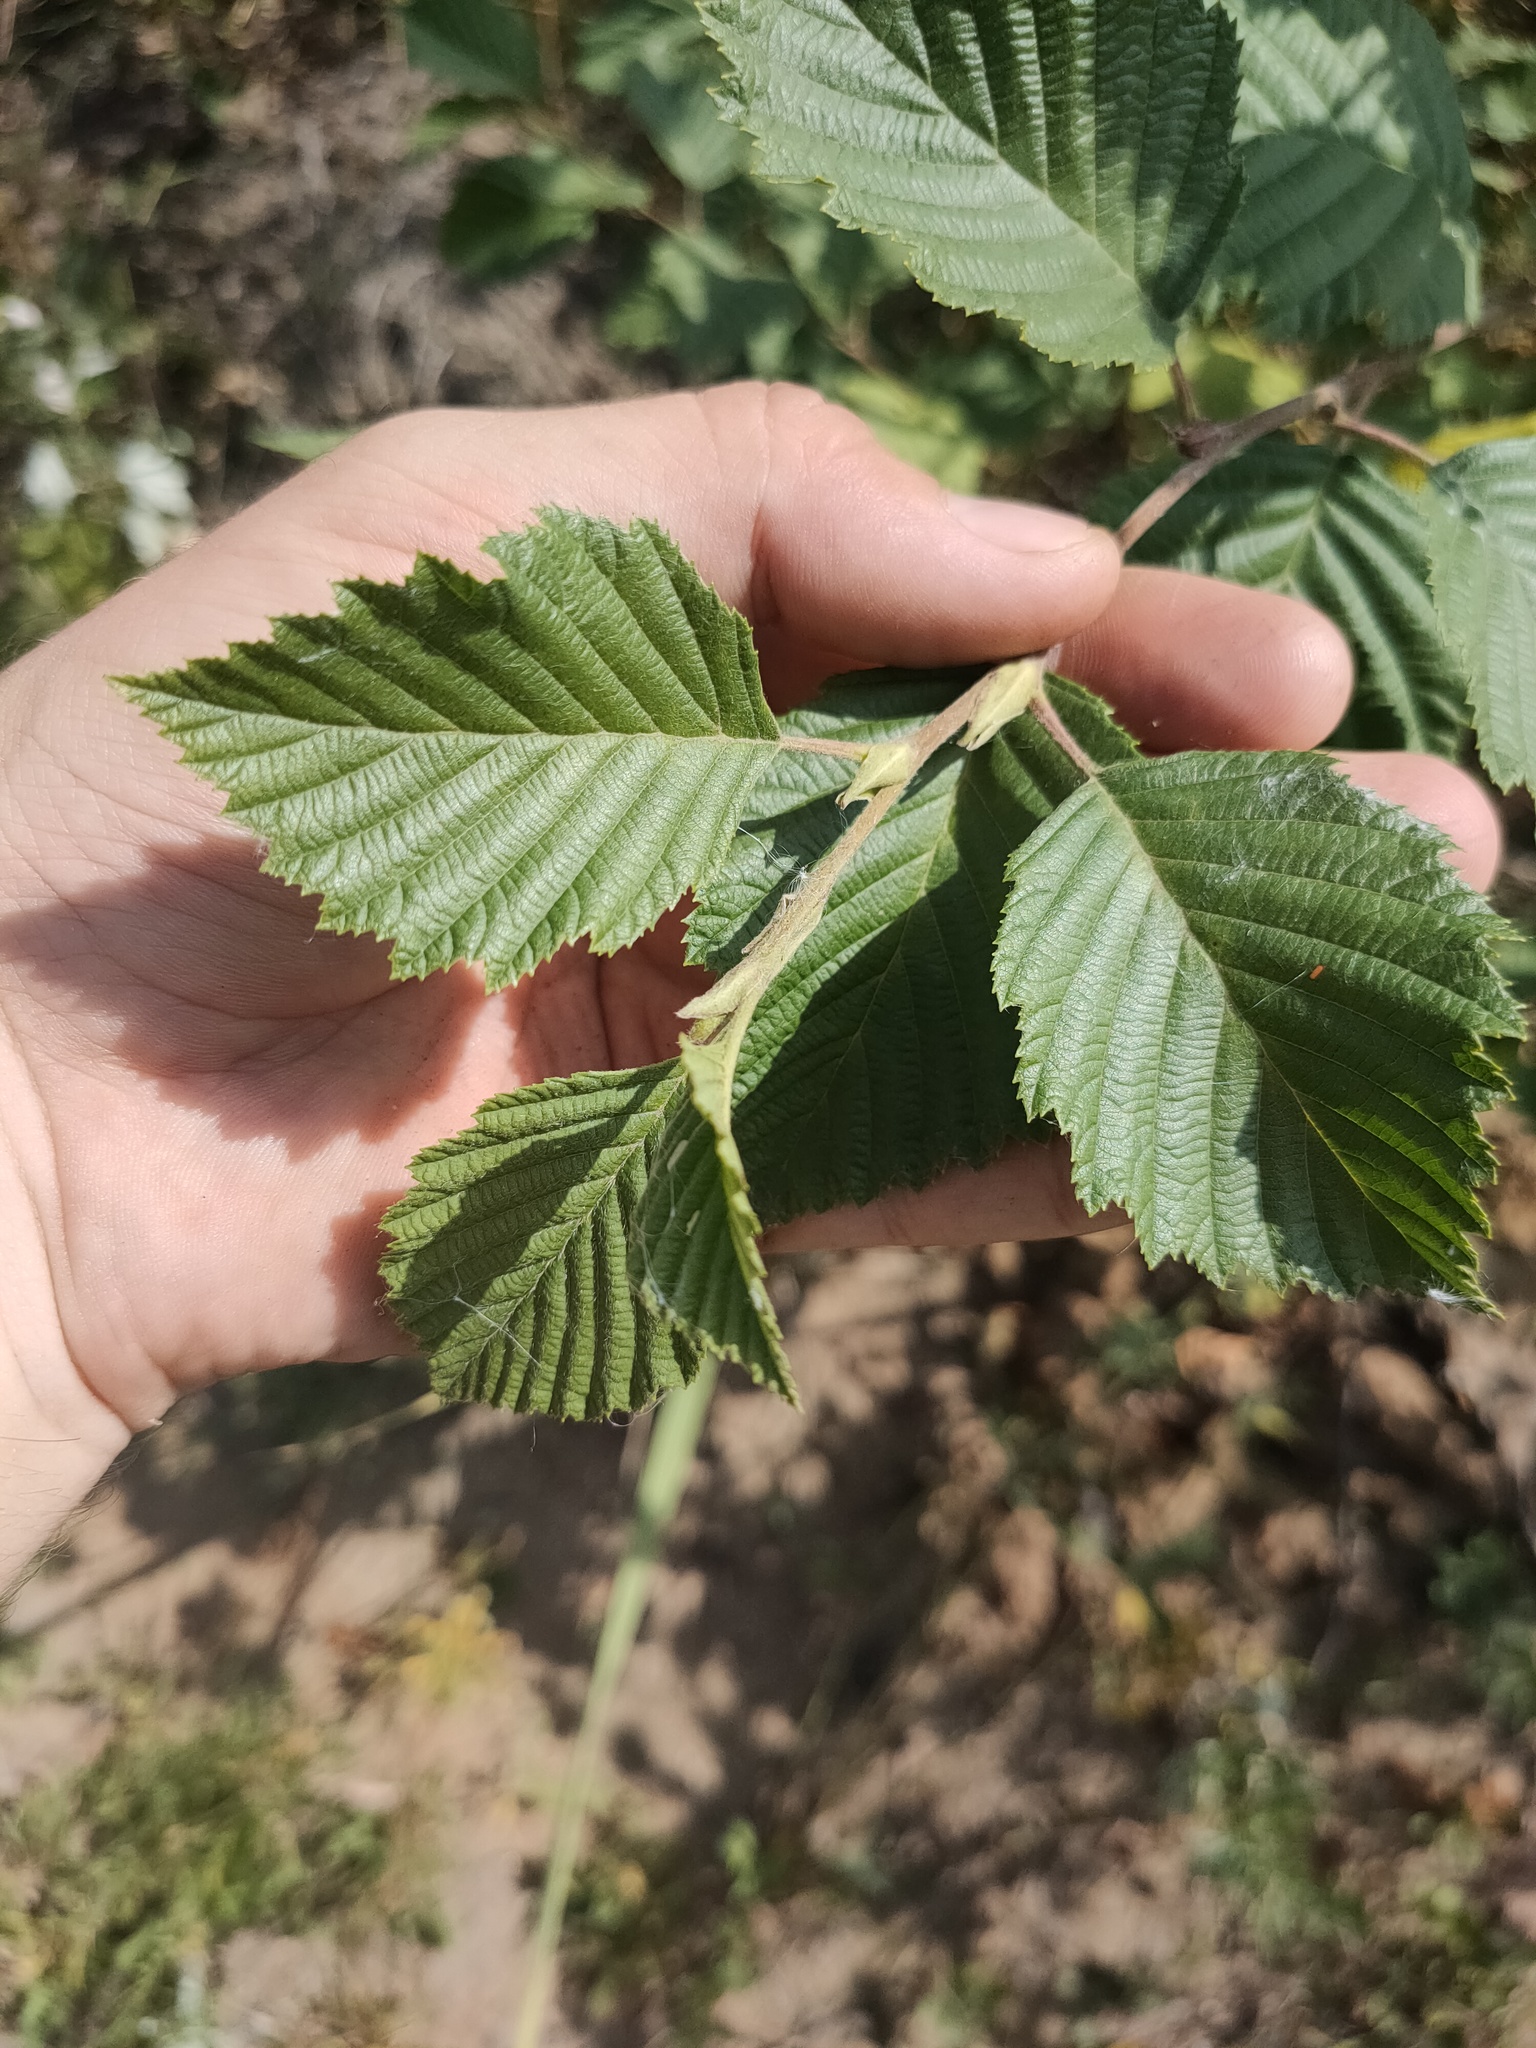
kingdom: Plantae
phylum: Tracheophyta
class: Magnoliopsida
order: Fagales
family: Betulaceae
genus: Alnus
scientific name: Alnus incana
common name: Grey alder
